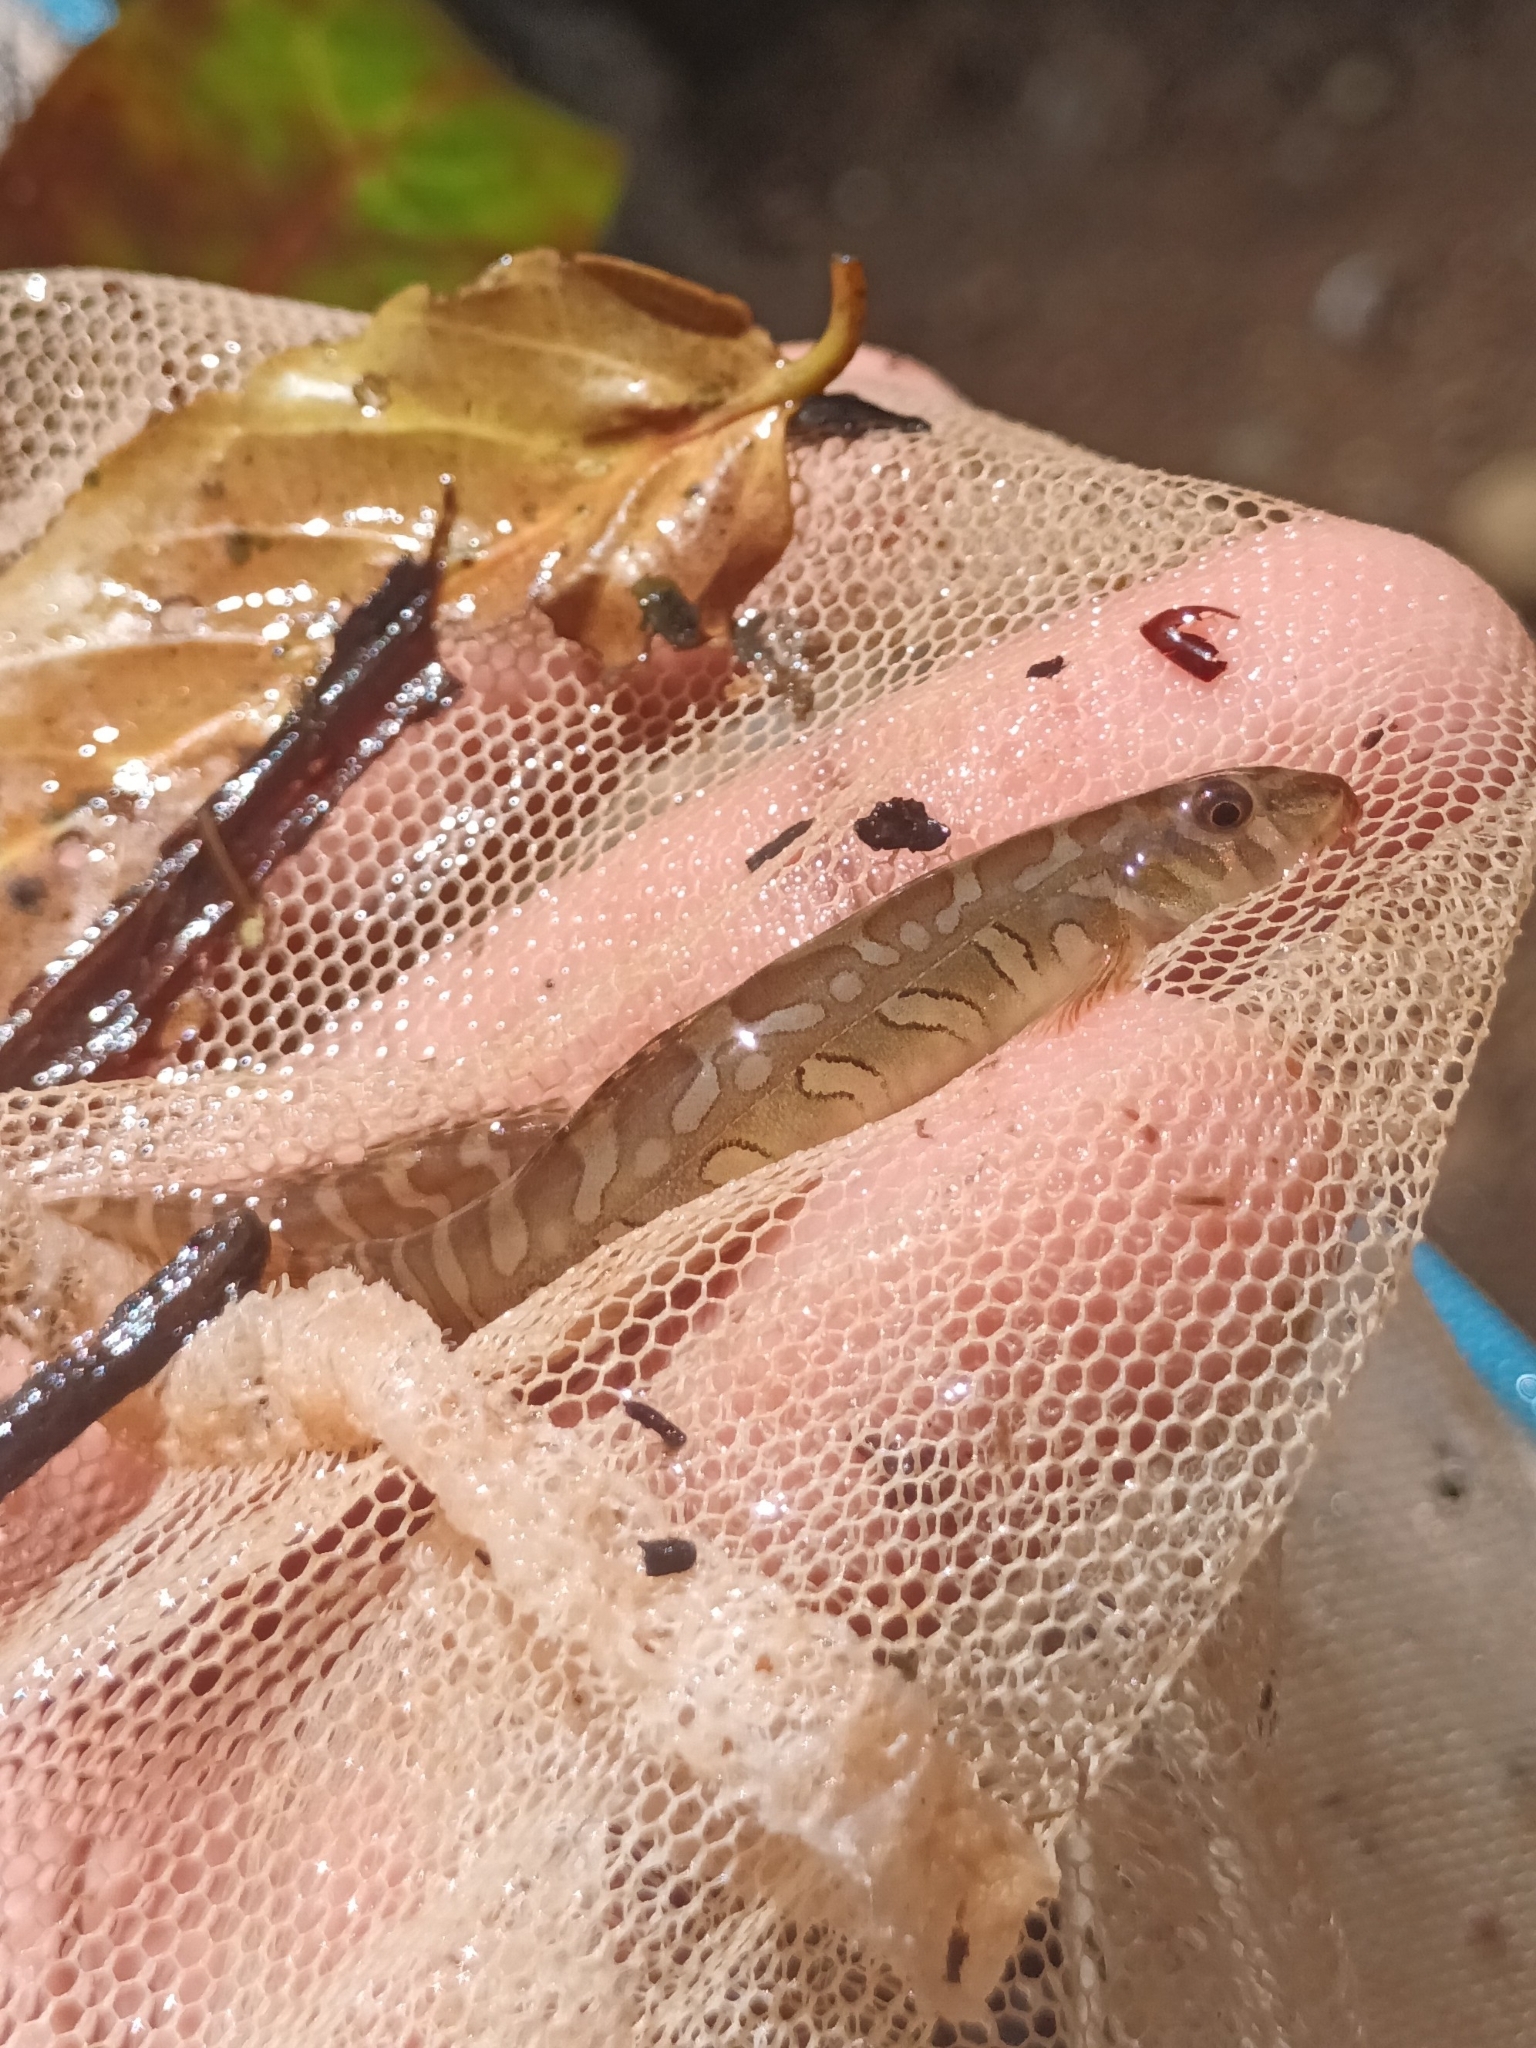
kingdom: Animalia
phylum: Chordata
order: Cypriniformes
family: Nemacheilidae
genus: Nemacheilus
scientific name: Nemacheilus triangularis
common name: Zodiac loach
